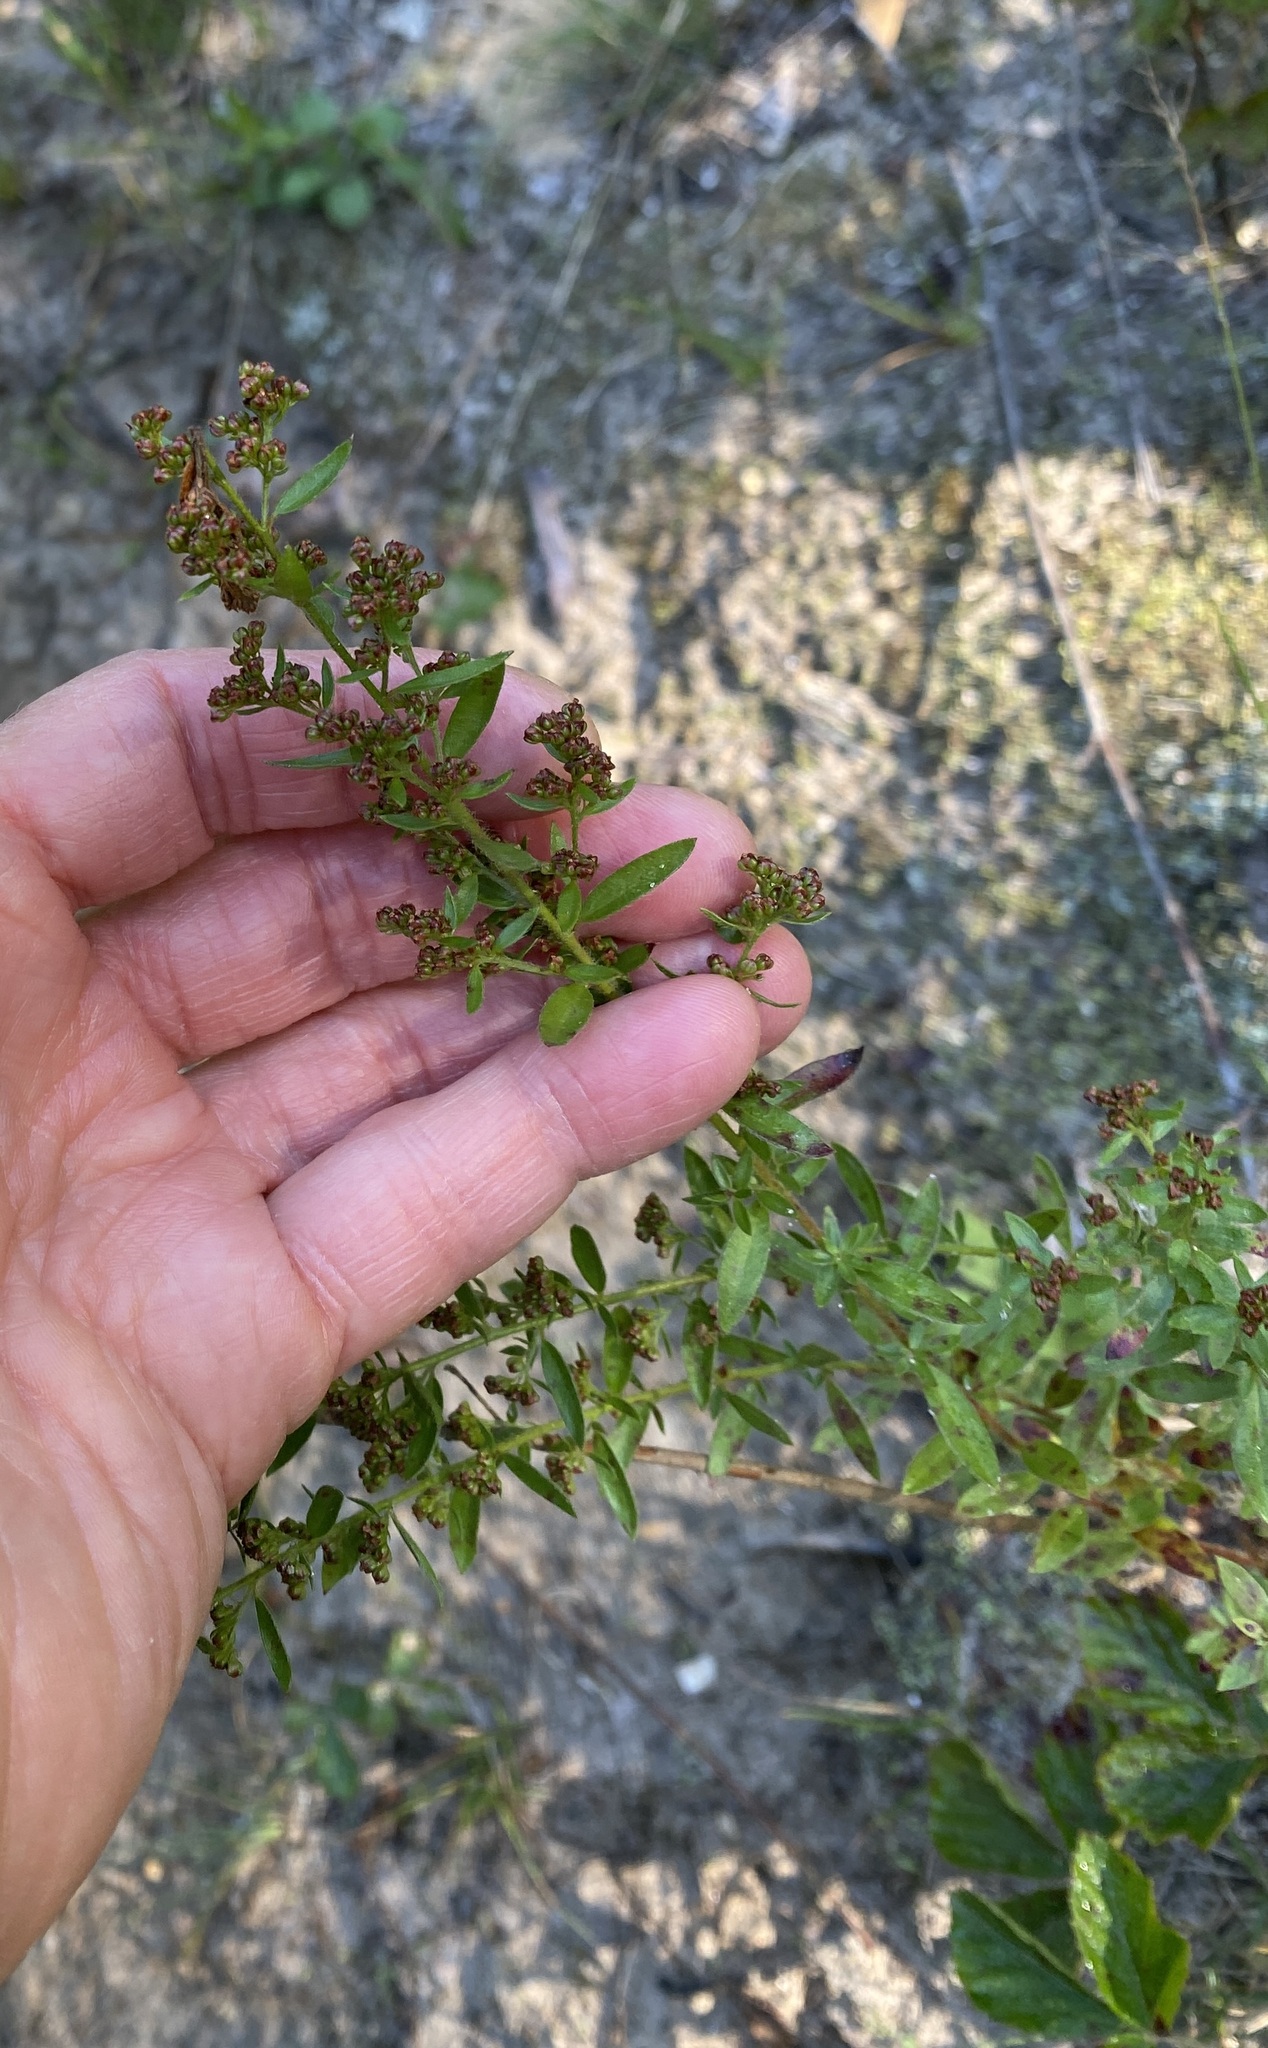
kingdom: Plantae
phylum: Tracheophyta
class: Magnoliopsida
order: Malvales
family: Cistaceae
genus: Lechea
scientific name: Lechea mucronata
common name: Hairy pinweed
